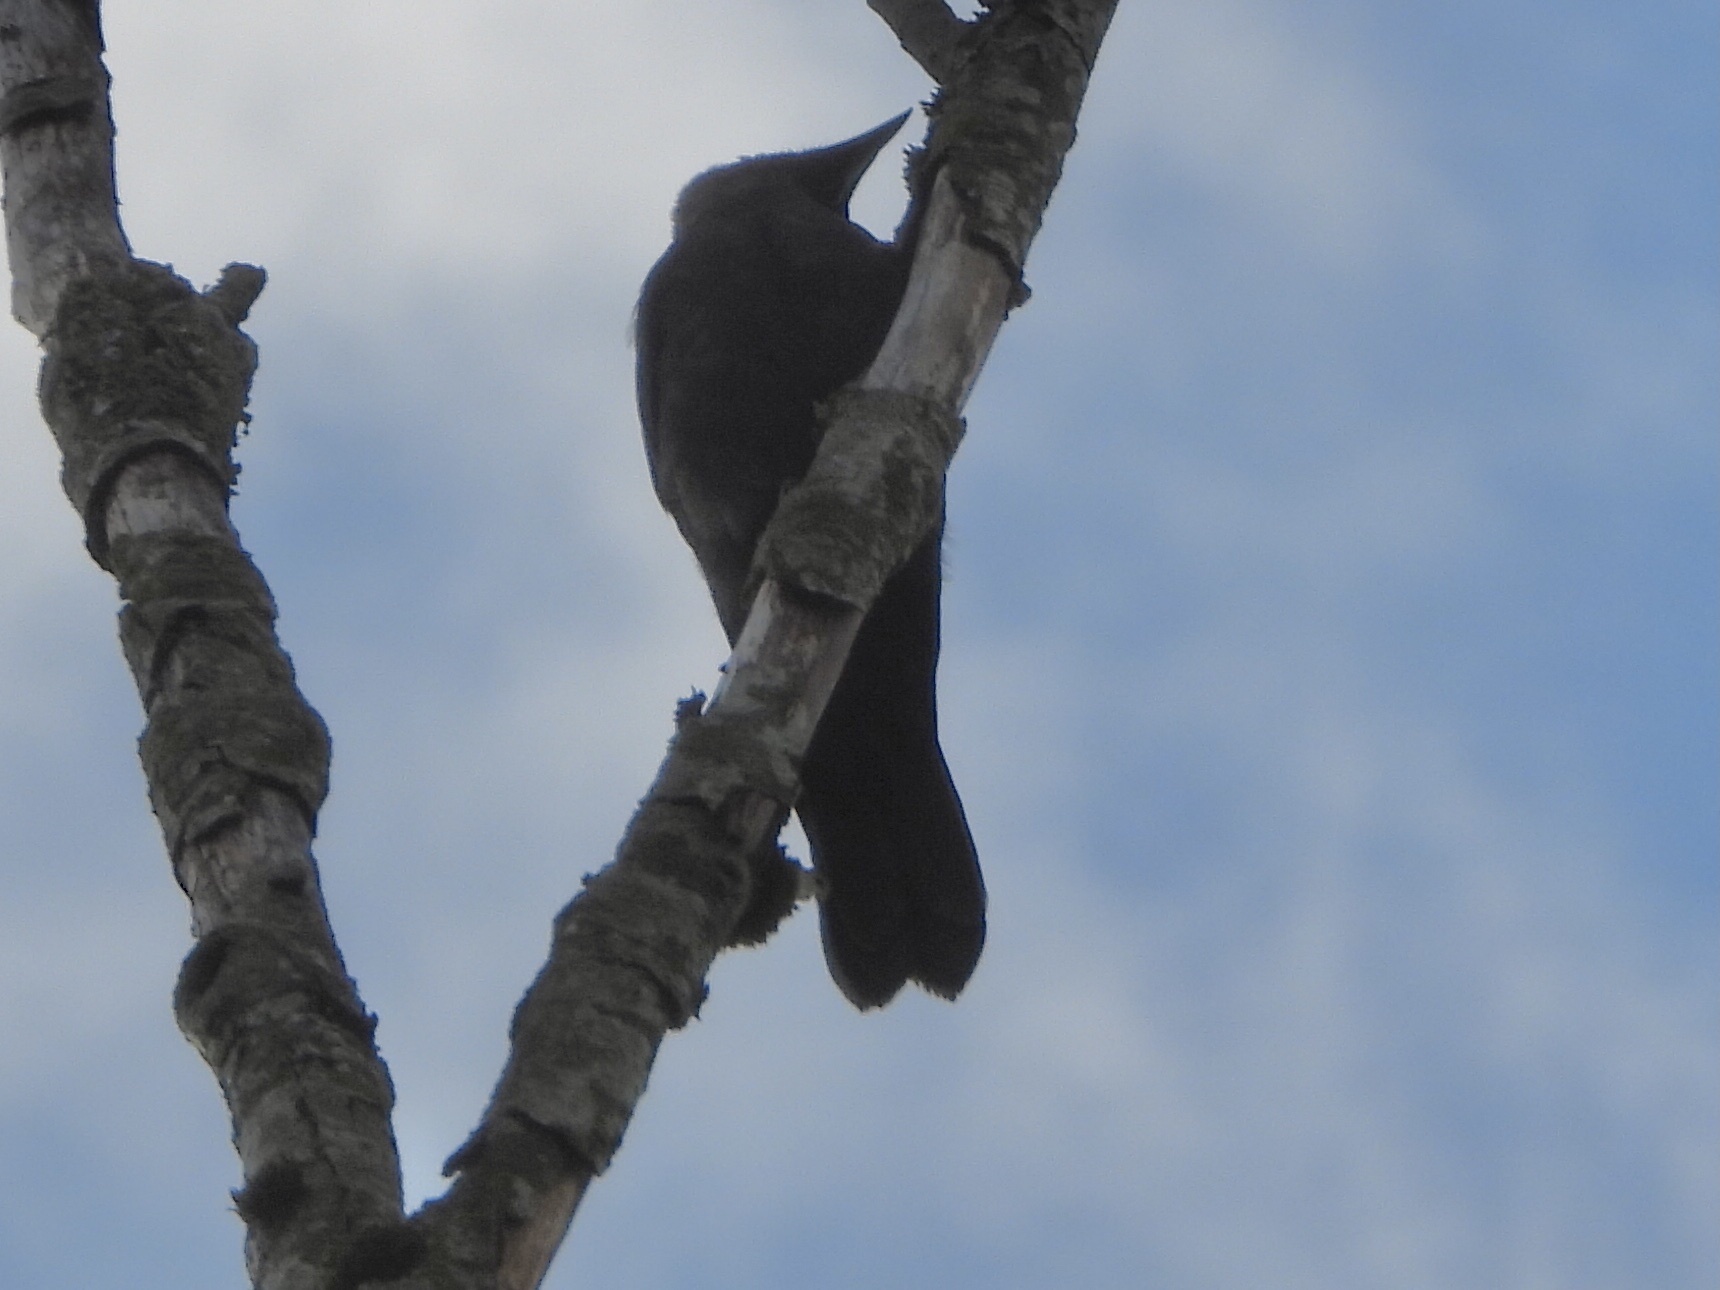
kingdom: Animalia
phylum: Chordata
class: Aves
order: Passeriformes
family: Corvidae
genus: Corvus
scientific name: Corvus brachyrhynchos
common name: American crow
